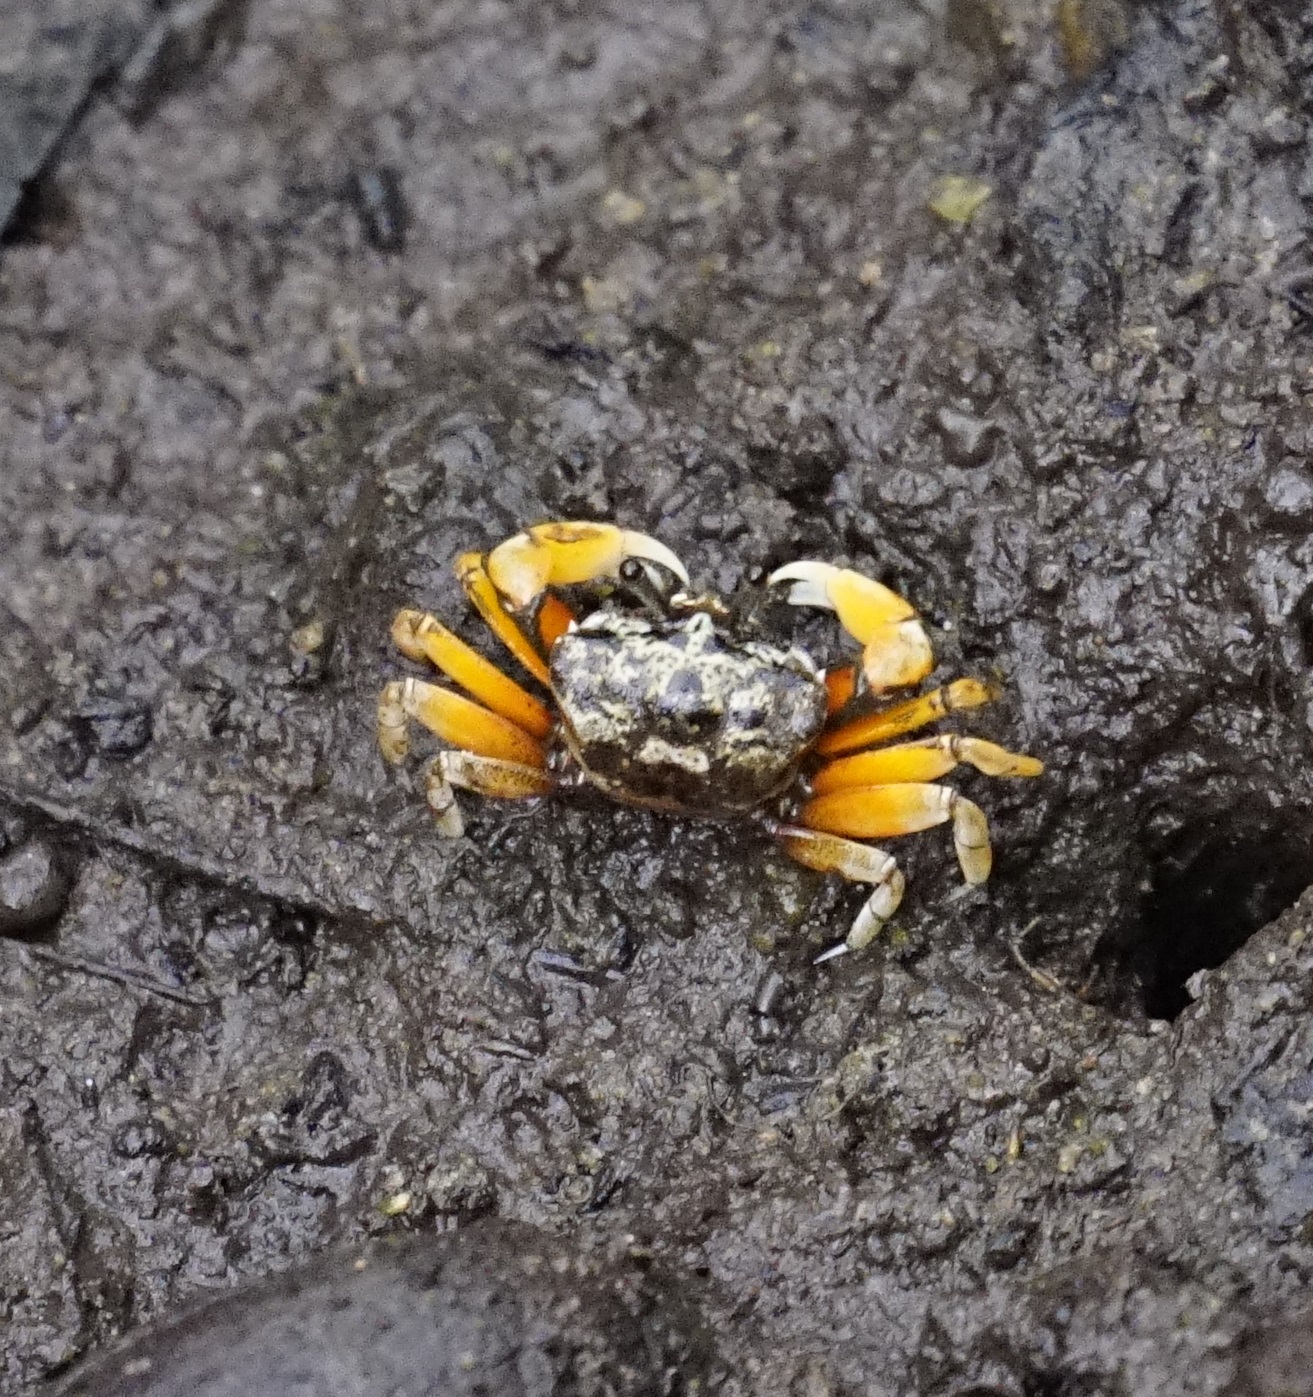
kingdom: Animalia
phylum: Arthropoda
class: Malacostraca
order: Decapoda
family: Heloeciidae
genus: Heloecius
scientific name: Heloecius cordiformis
